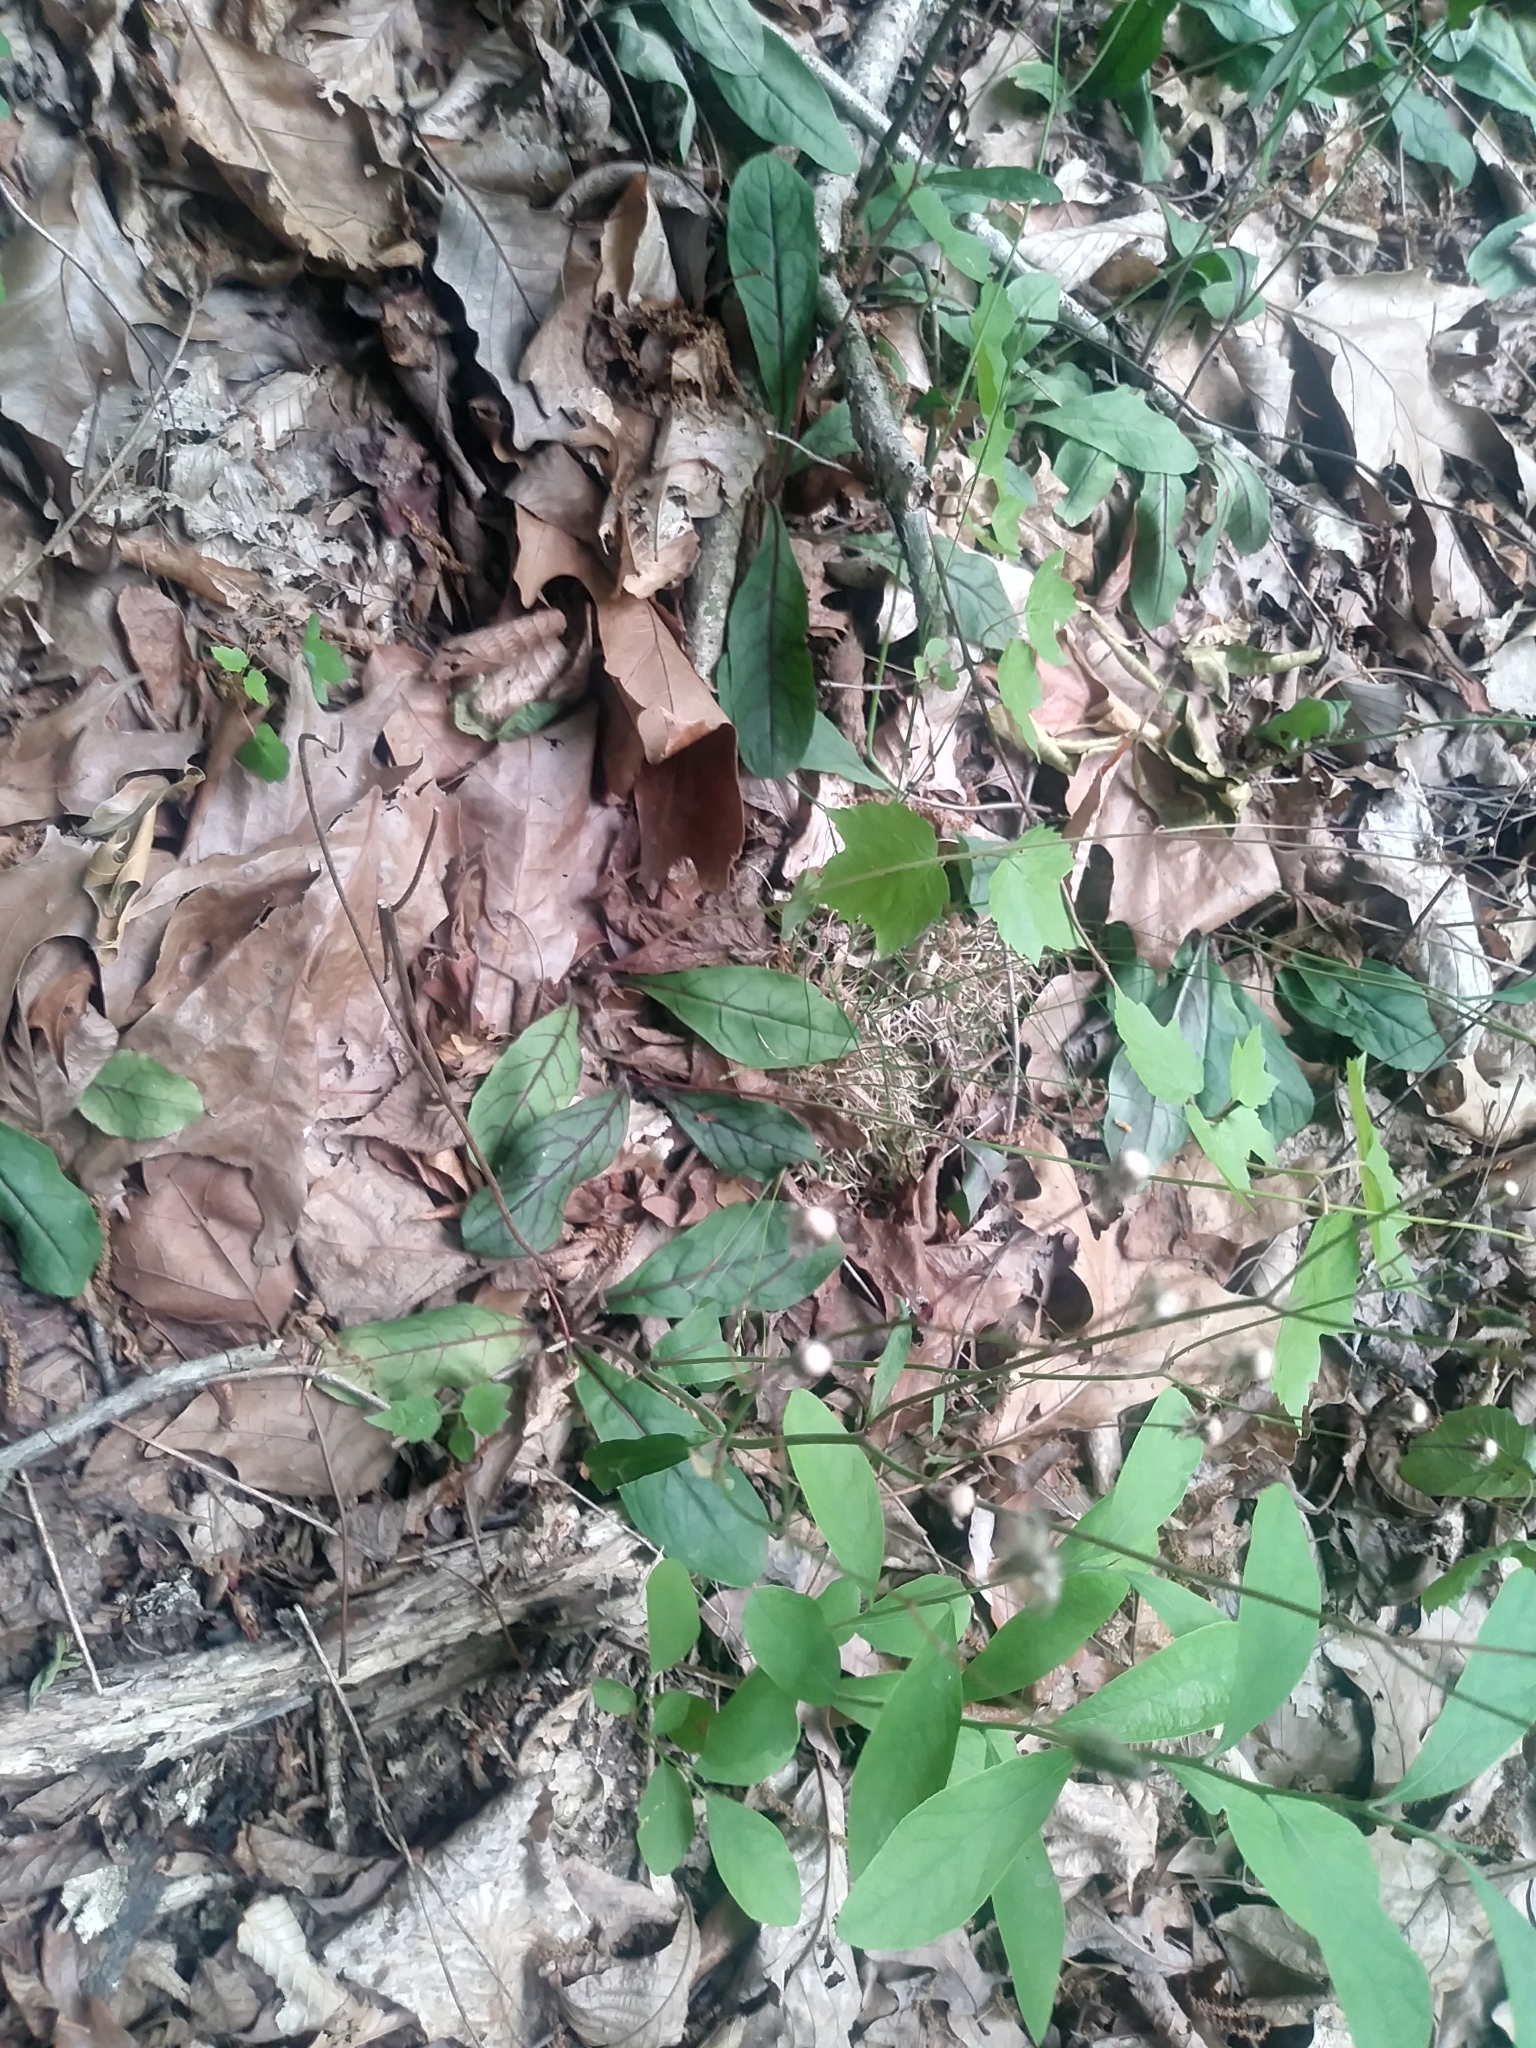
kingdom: Plantae
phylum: Tracheophyta
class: Magnoliopsida
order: Asterales
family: Asteraceae
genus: Hieracium
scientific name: Hieracium venosum
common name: Rattlesnake hawkweed
